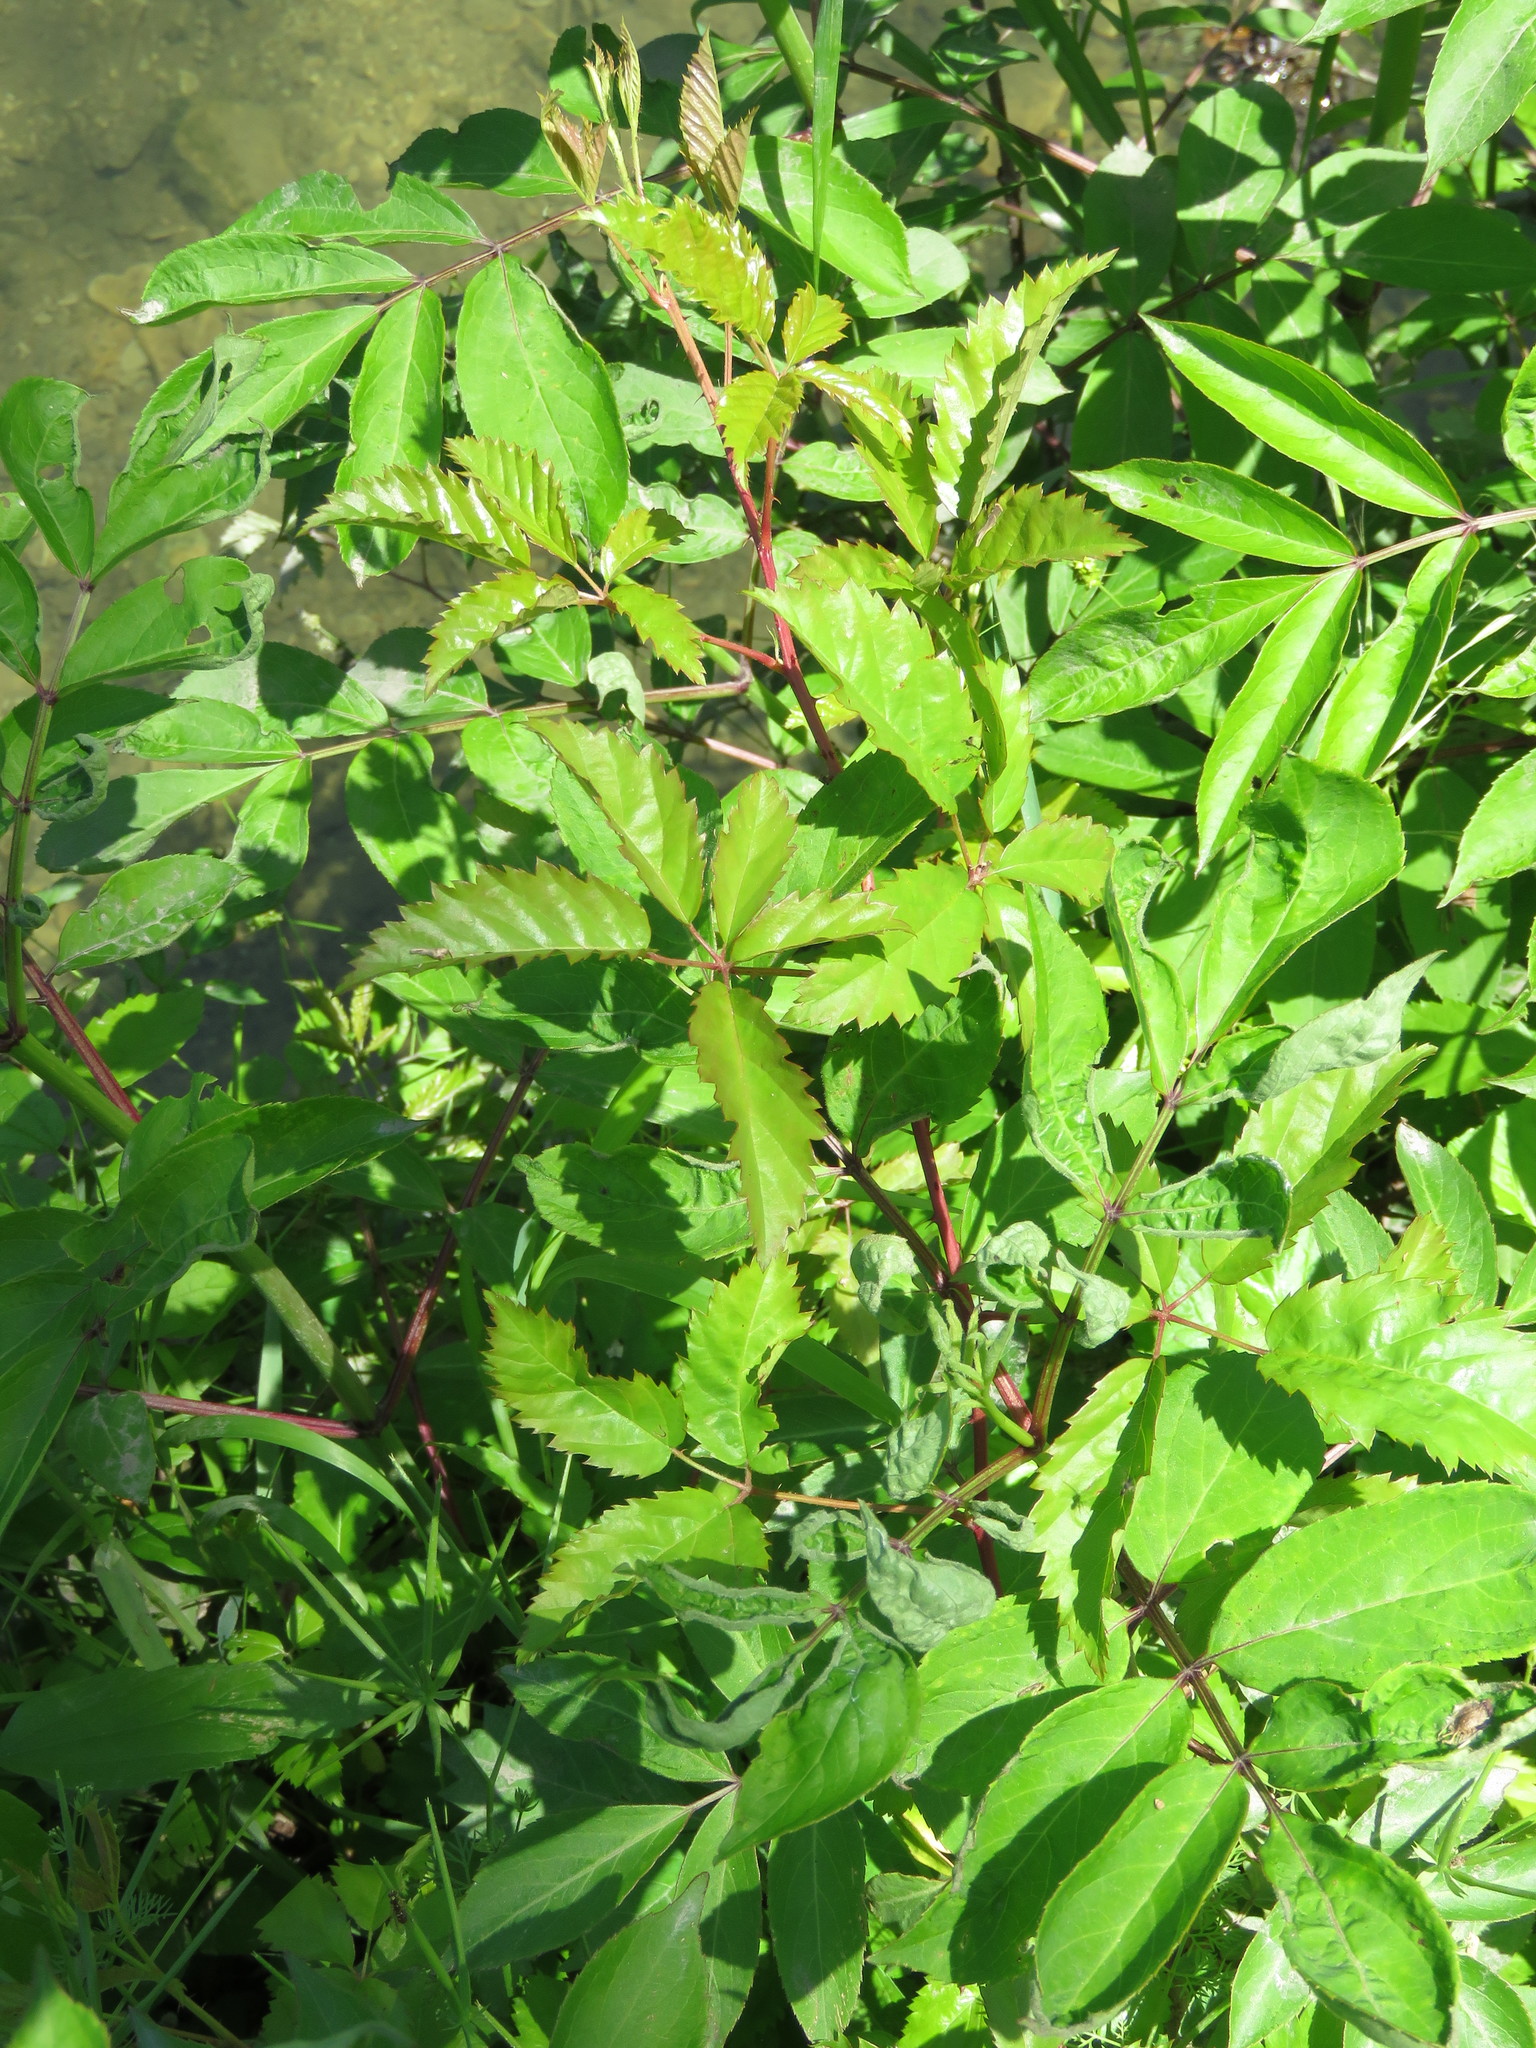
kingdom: Plantae
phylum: Tracheophyta
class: Magnoliopsida
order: Rosales
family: Rosaceae
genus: Rubus
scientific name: Rubus trivialis
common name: Southern dewberry
